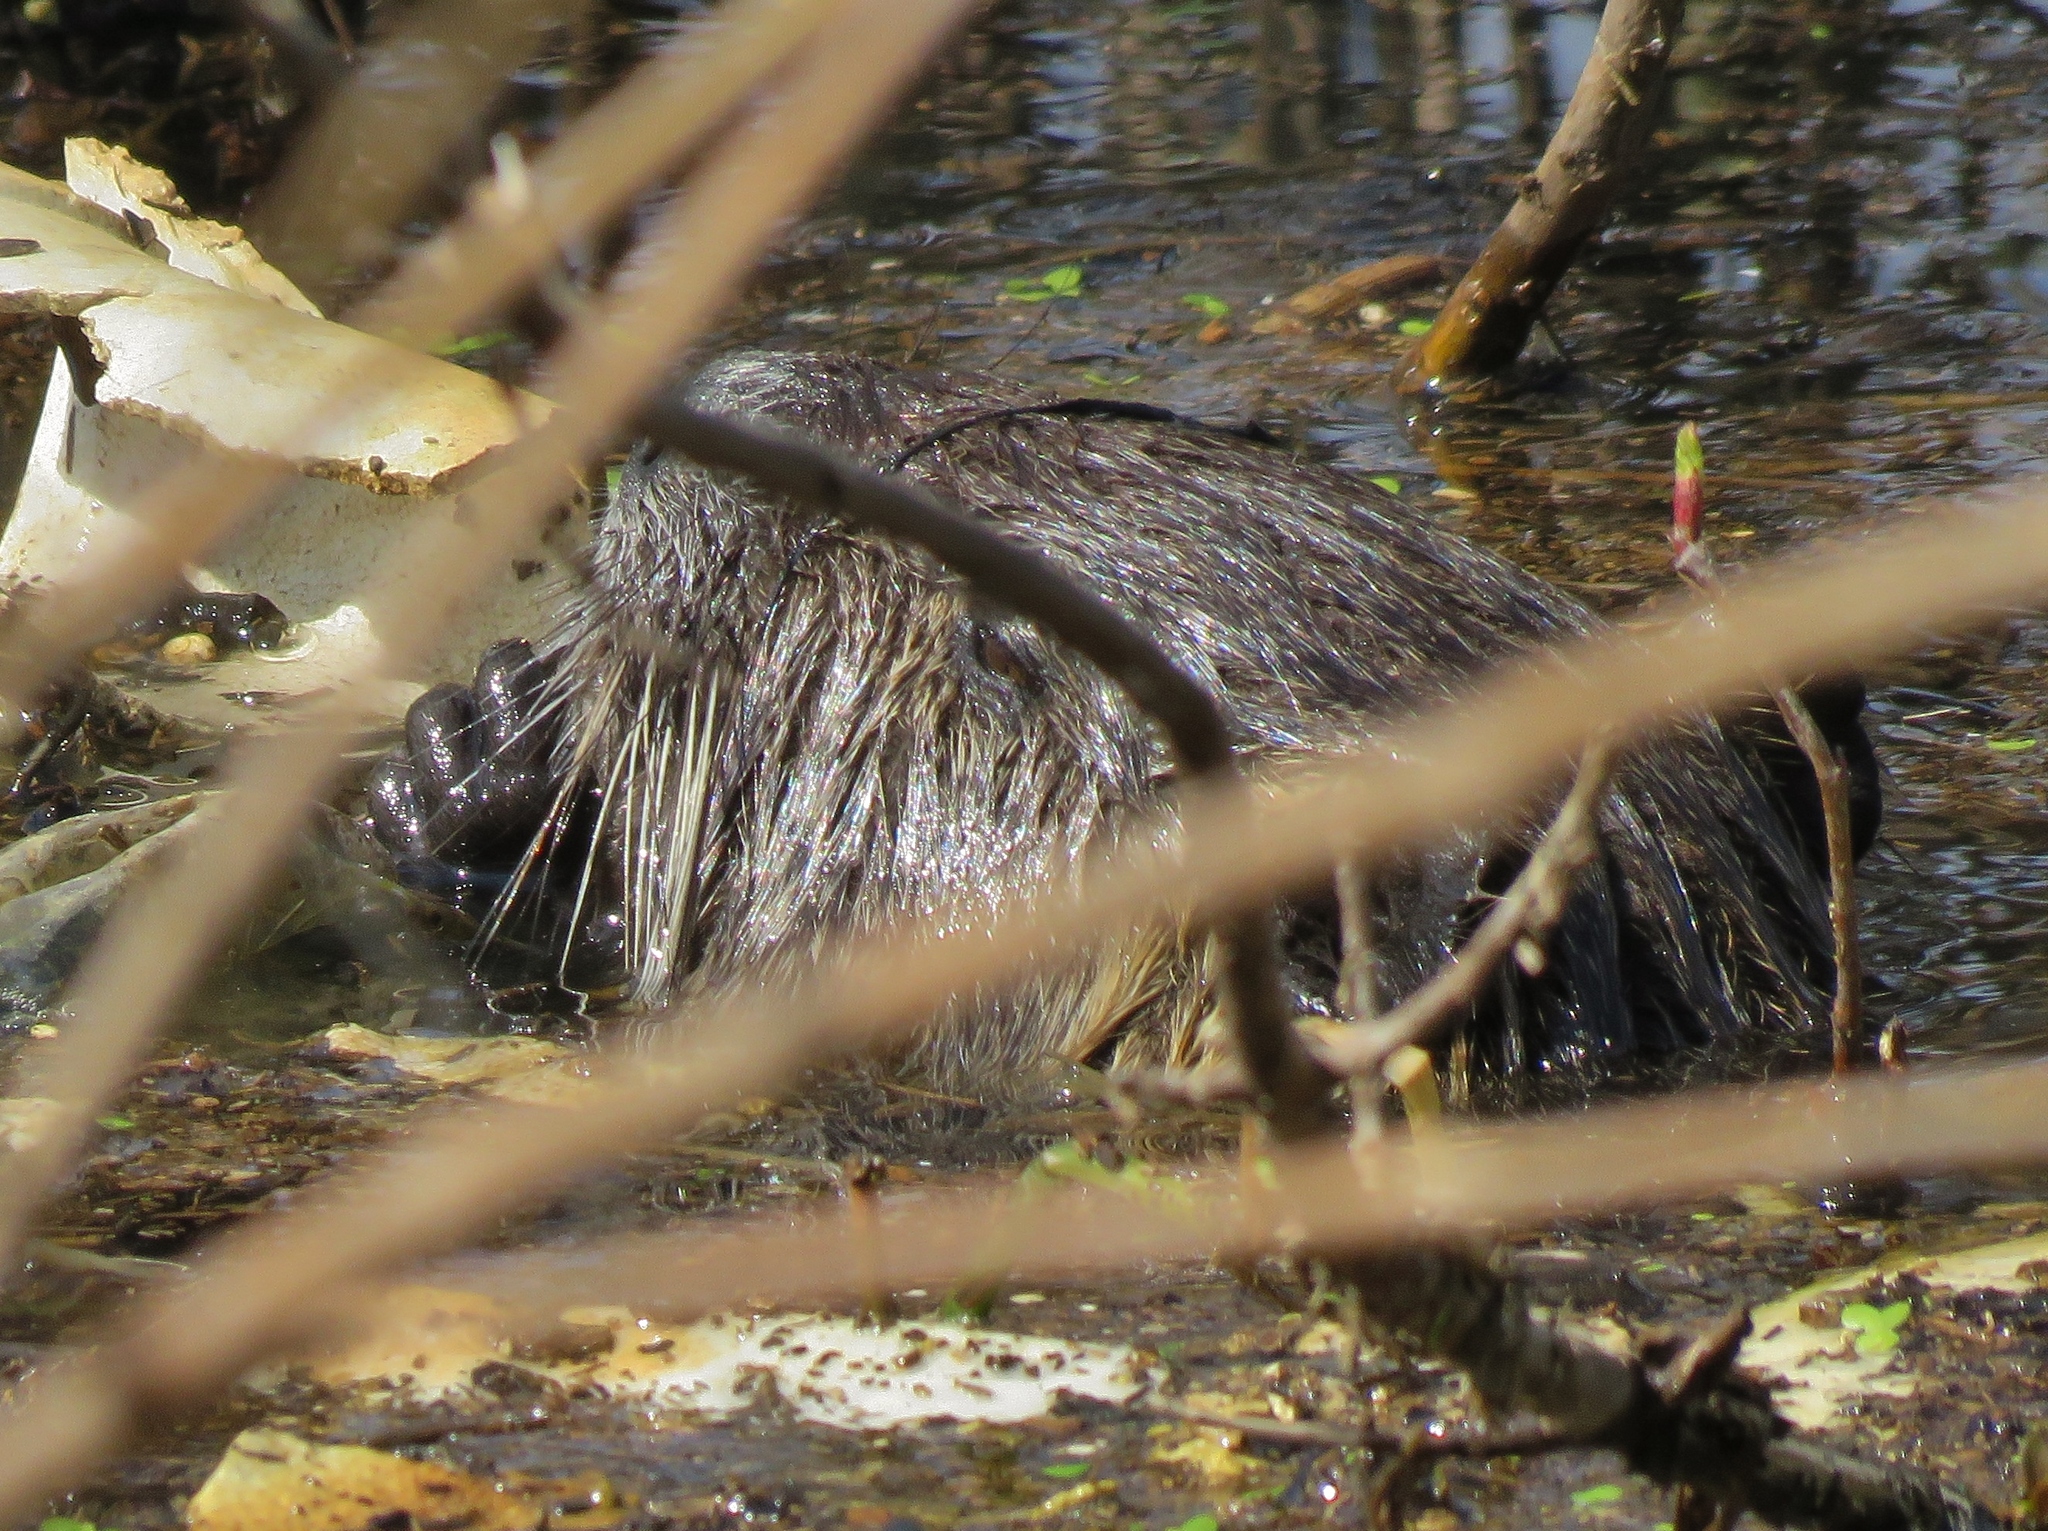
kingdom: Animalia
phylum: Chordata
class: Mammalia
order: Rodentia
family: Myocastoridae
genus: Myocastor
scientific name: Myocastor coypus
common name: Coypu
